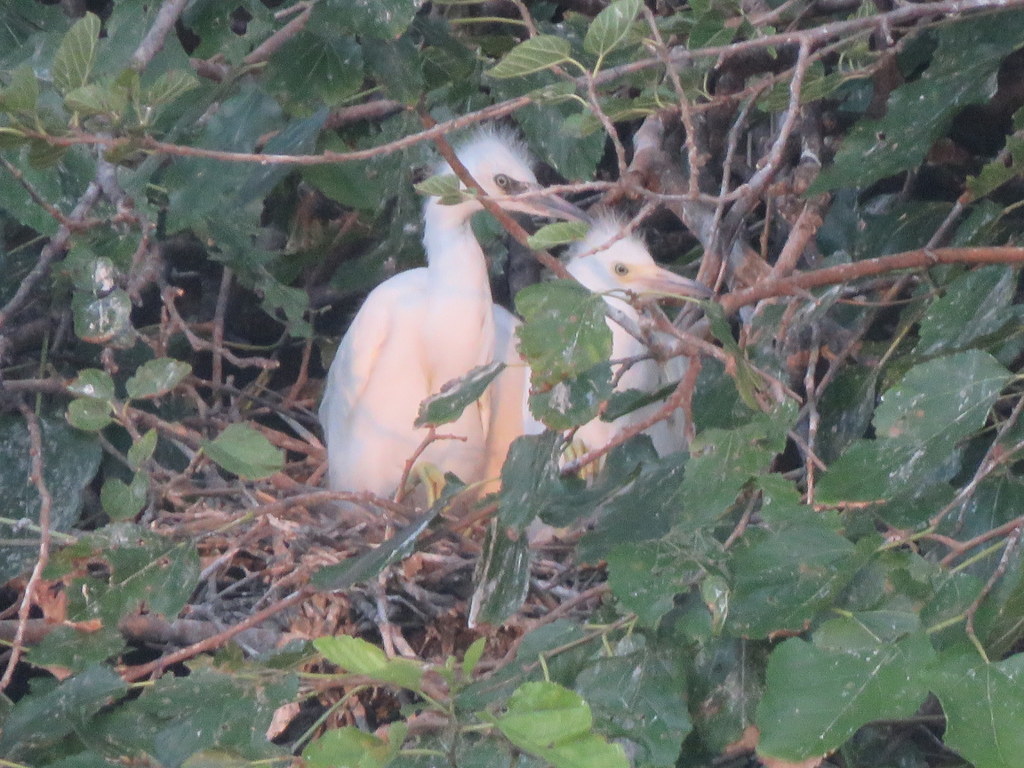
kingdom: Animalia
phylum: Chordata
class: Aves
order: Pelecaniformes
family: Ardeidae
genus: Egretta
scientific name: Egretta thula
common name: Snowy egret
